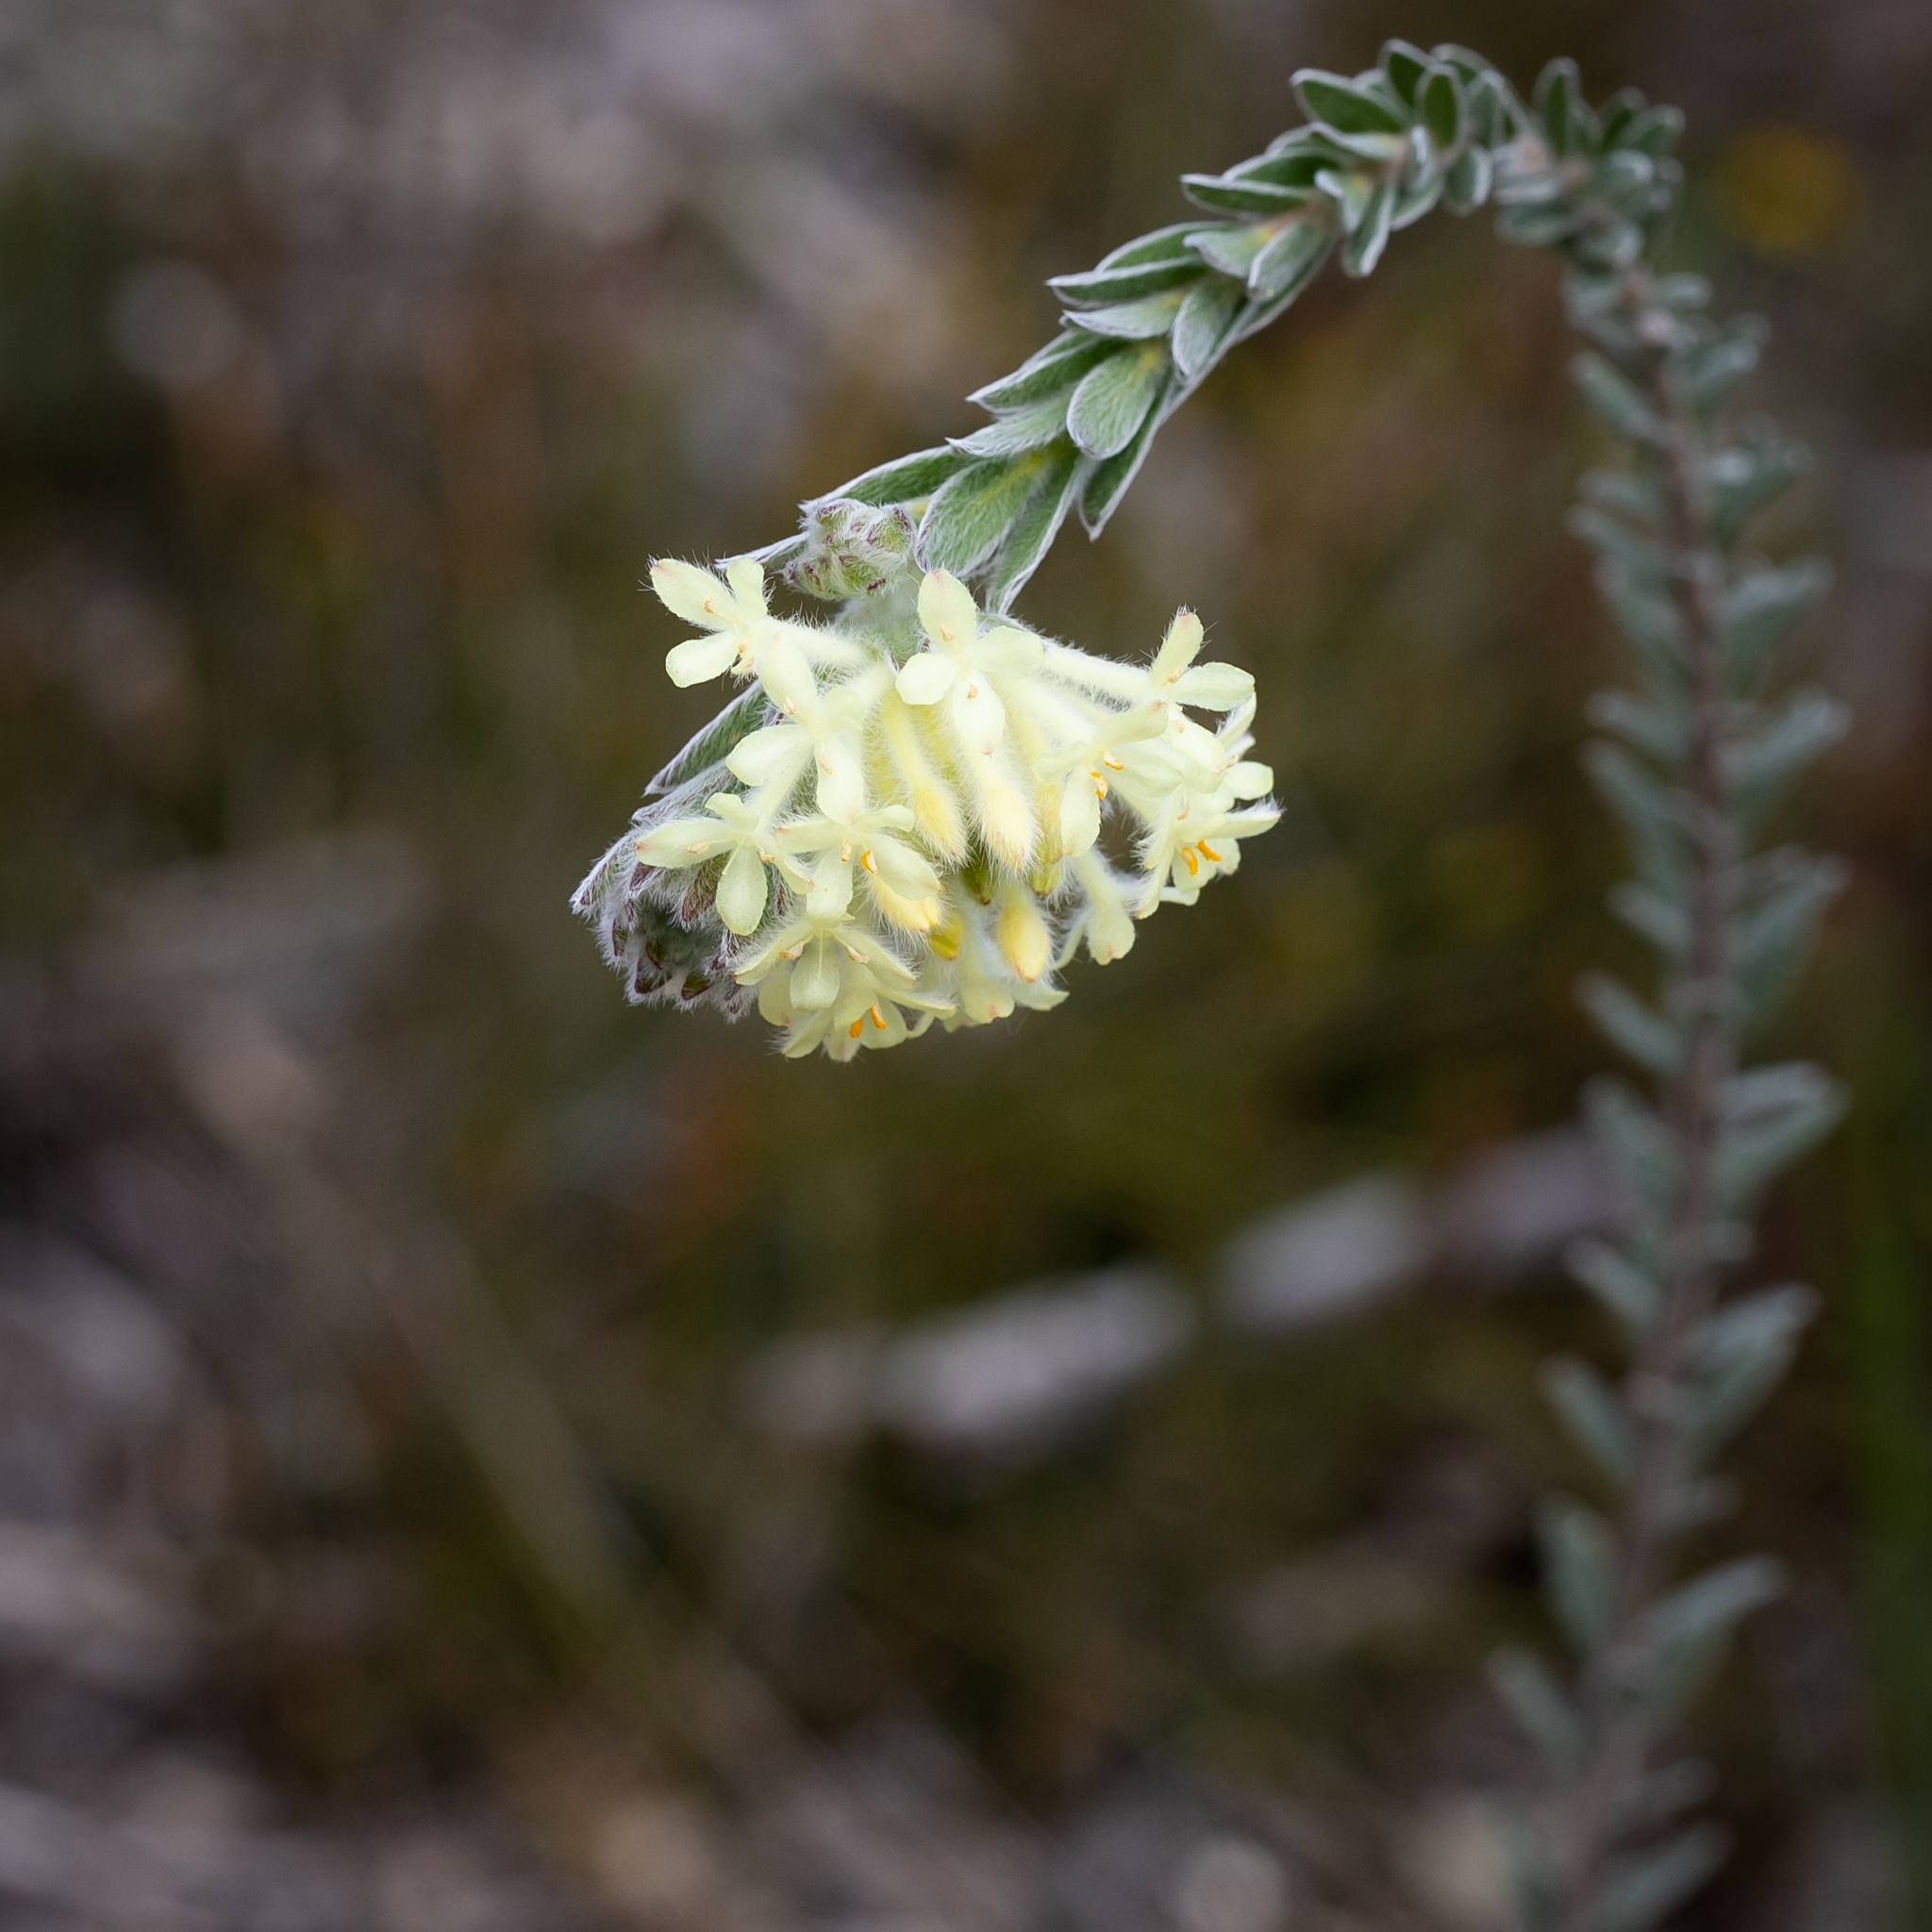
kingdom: Plantae
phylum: Tracheophyta
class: Magnoliopsida
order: Malvales
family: Thymelaeaceae
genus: Pimelea
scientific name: Pimelea octophylla
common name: Woolly riceflower
